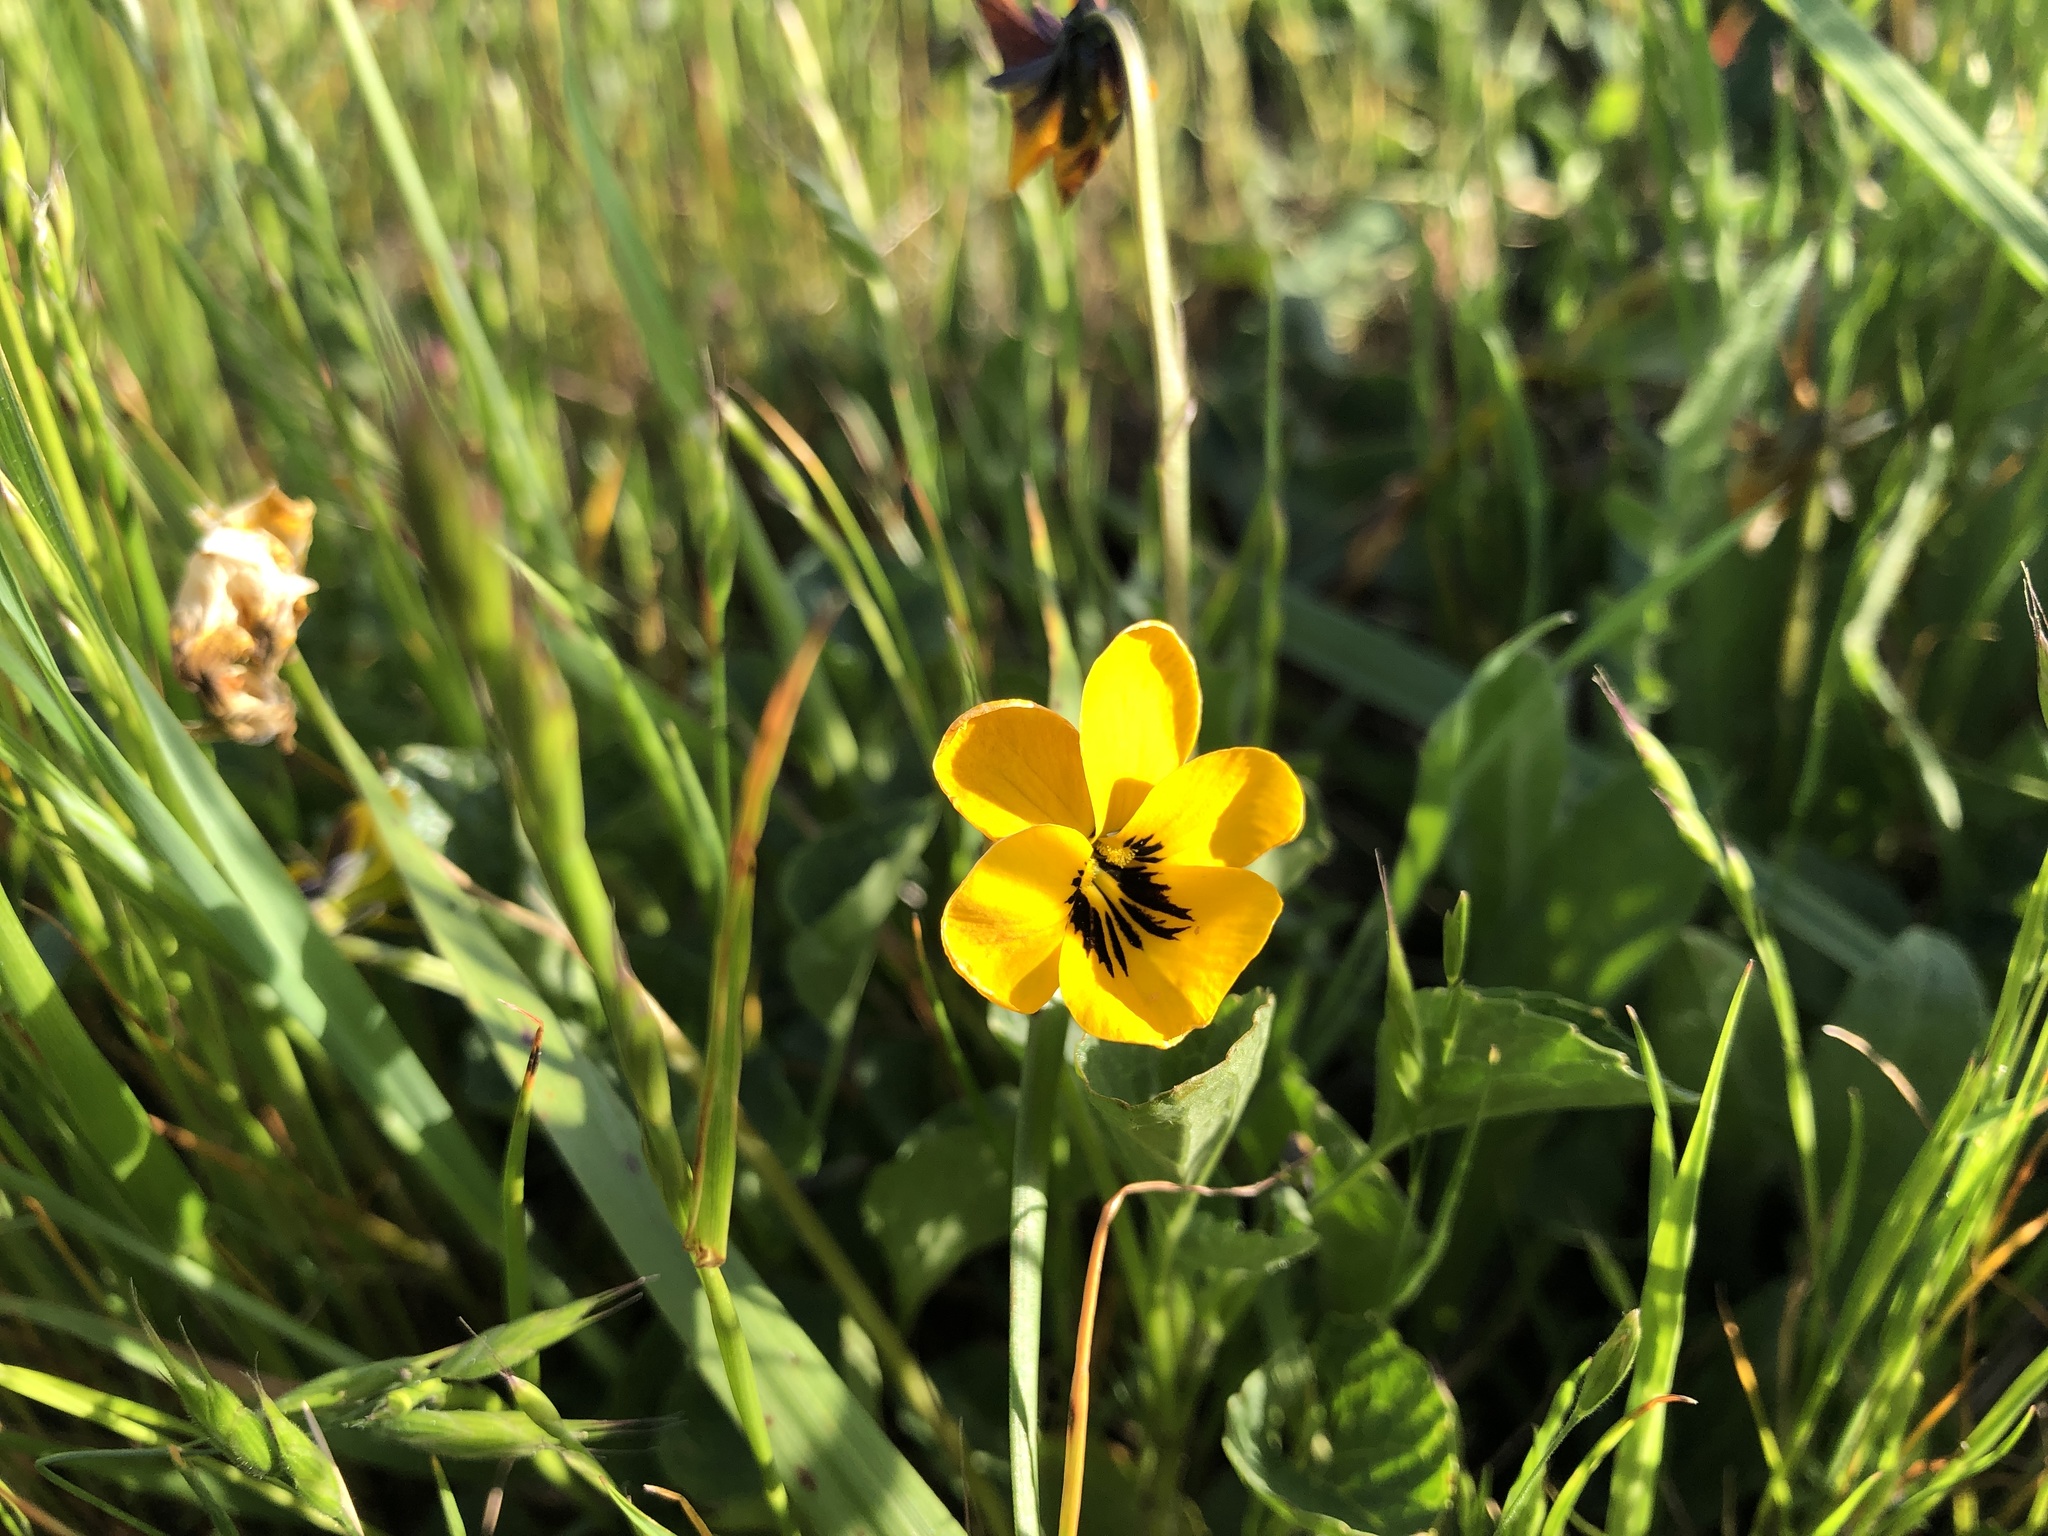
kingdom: Plantae
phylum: Tracheophyta
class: Magnoliopsida
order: Malpighiales
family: Violaceae
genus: Viola
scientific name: Viola pedunculata
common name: California golden violet
